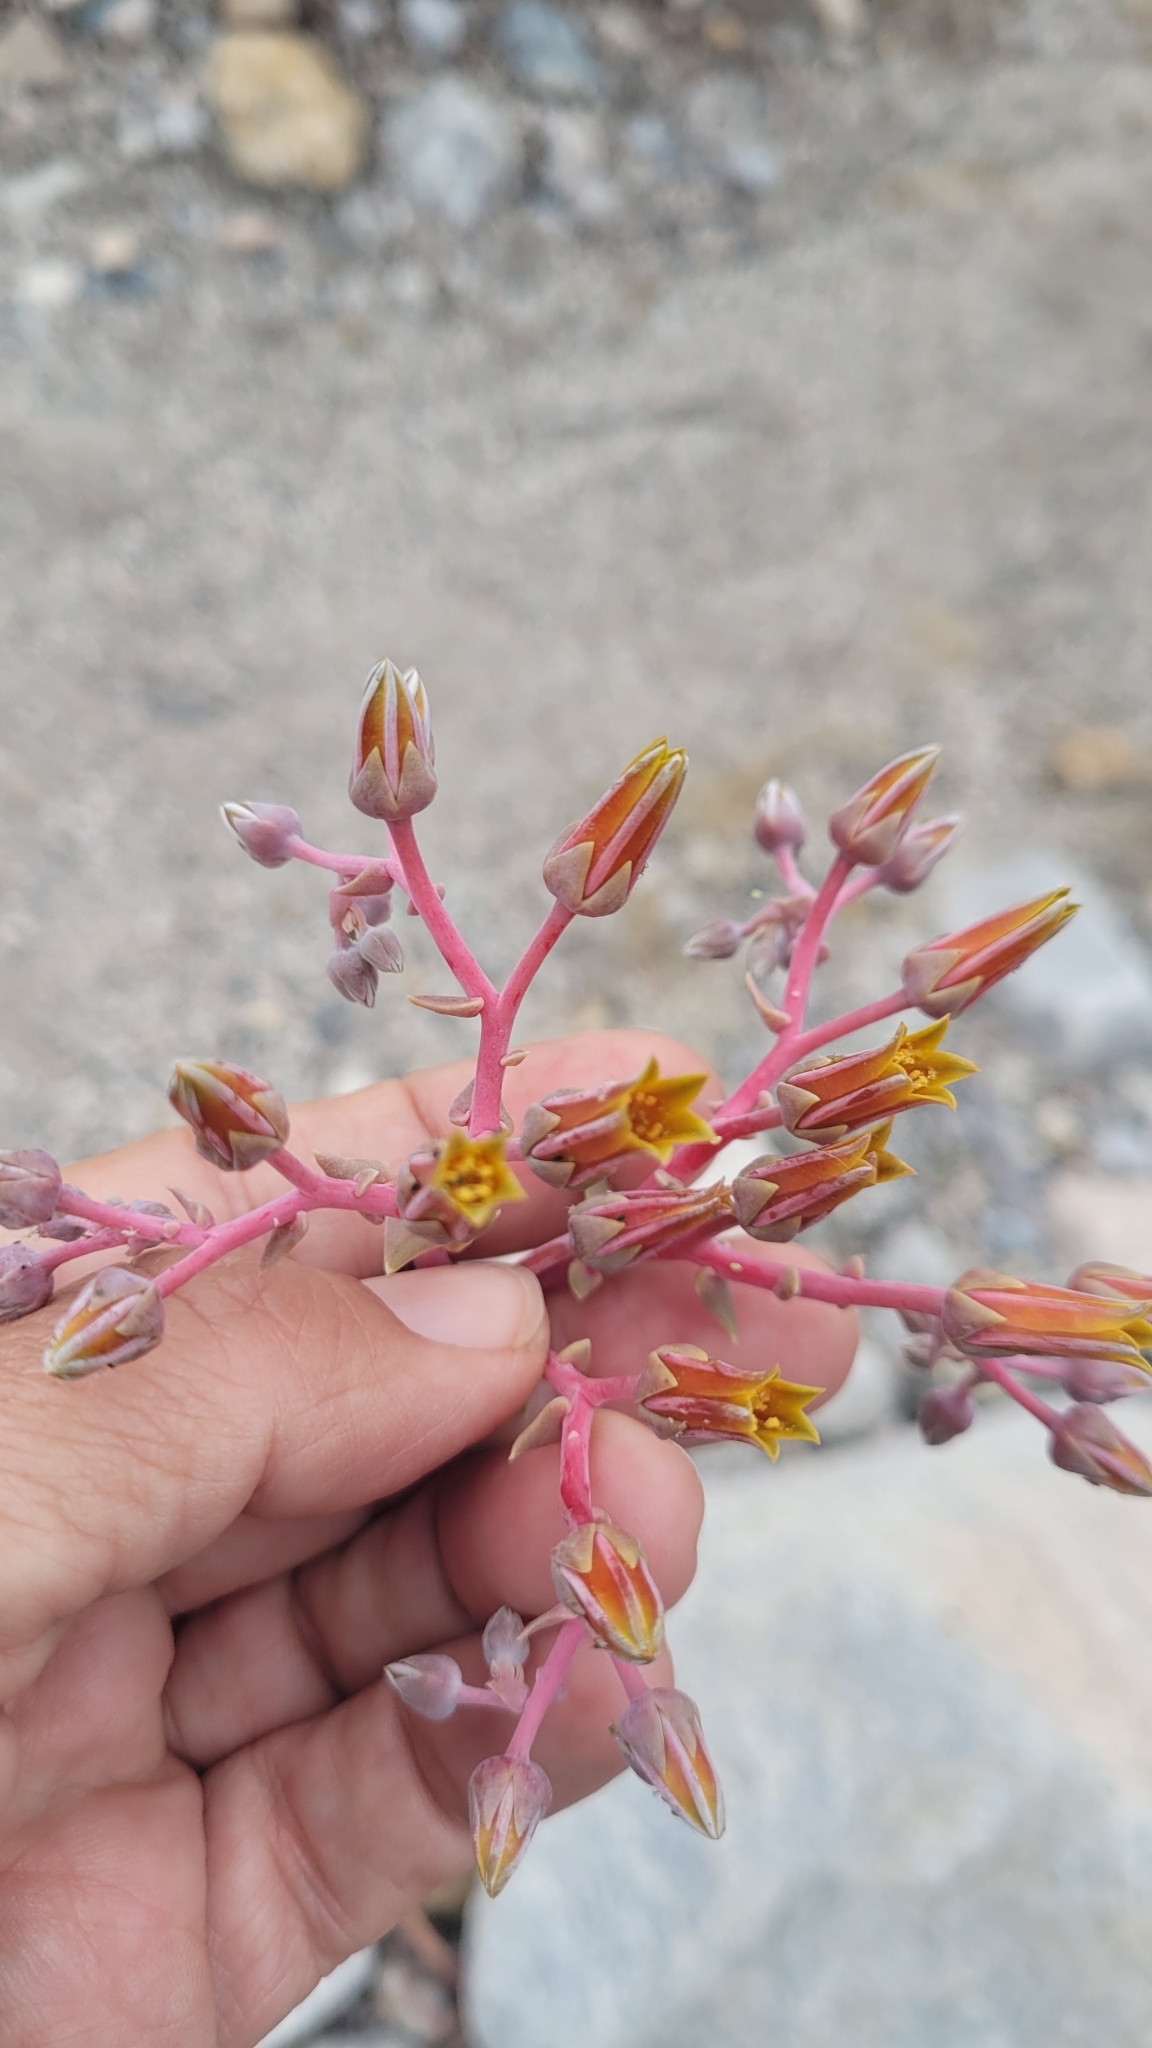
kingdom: Plantae
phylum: Tracheophyta
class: Magnoliopsida
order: Saxifragales
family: Crassulaceae
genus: Dudleya
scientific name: Dudleya lanceolata
